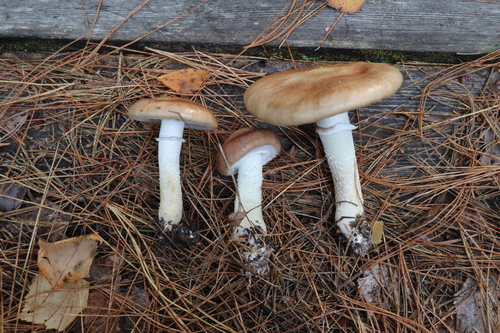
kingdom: Fungi
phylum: Basidiomycota
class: Agaricomycetes
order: Agaricales
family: Strophariaceae
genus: Stropharia
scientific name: Stropharia hornemannii
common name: Conifer roundhead
